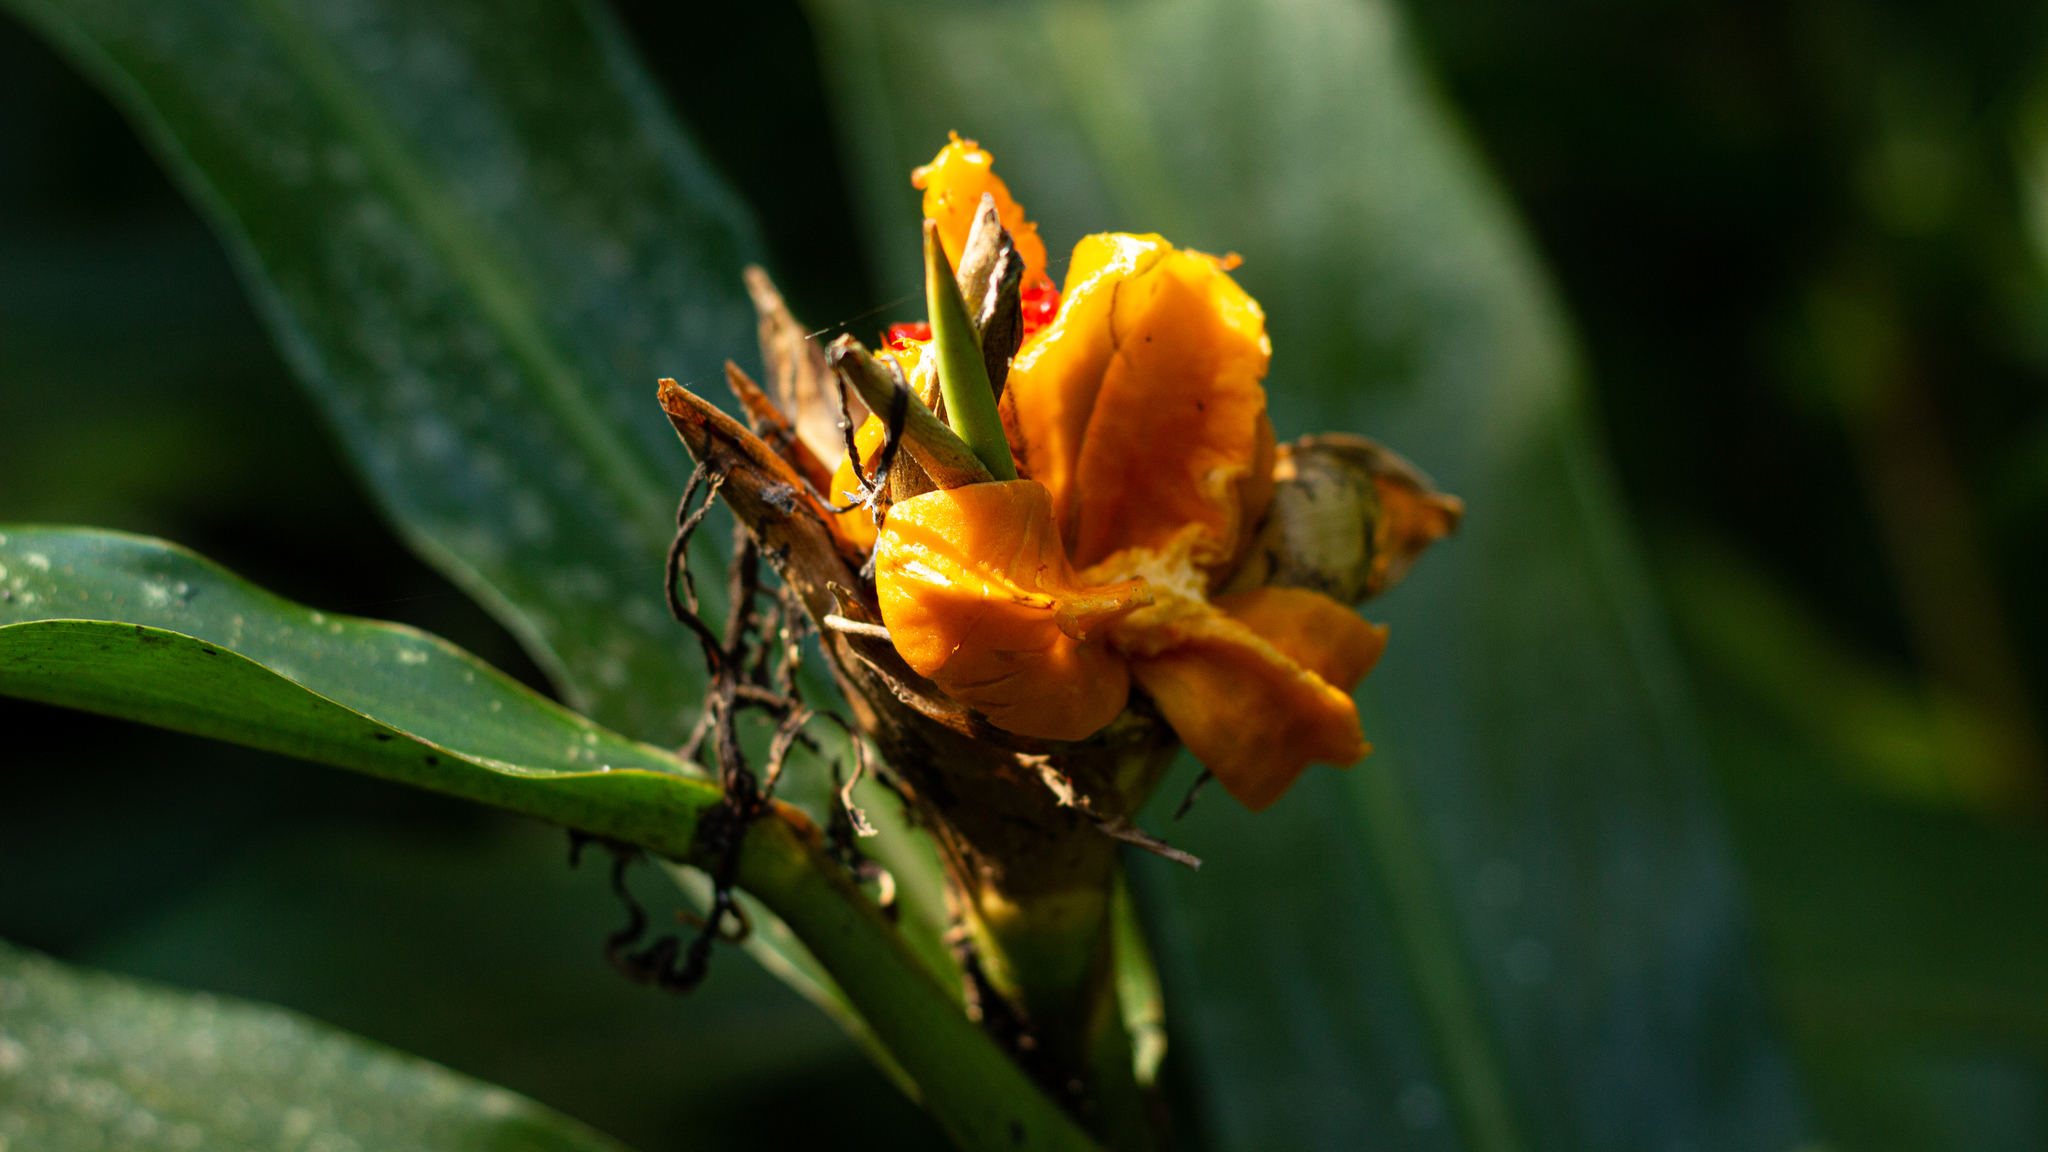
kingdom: Plantae
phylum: Tracheophyta
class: Liliopsida
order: Zingiberales
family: Zingiberaceae
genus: Hedychium
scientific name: Hedychium coronarium
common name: White garland-lily
